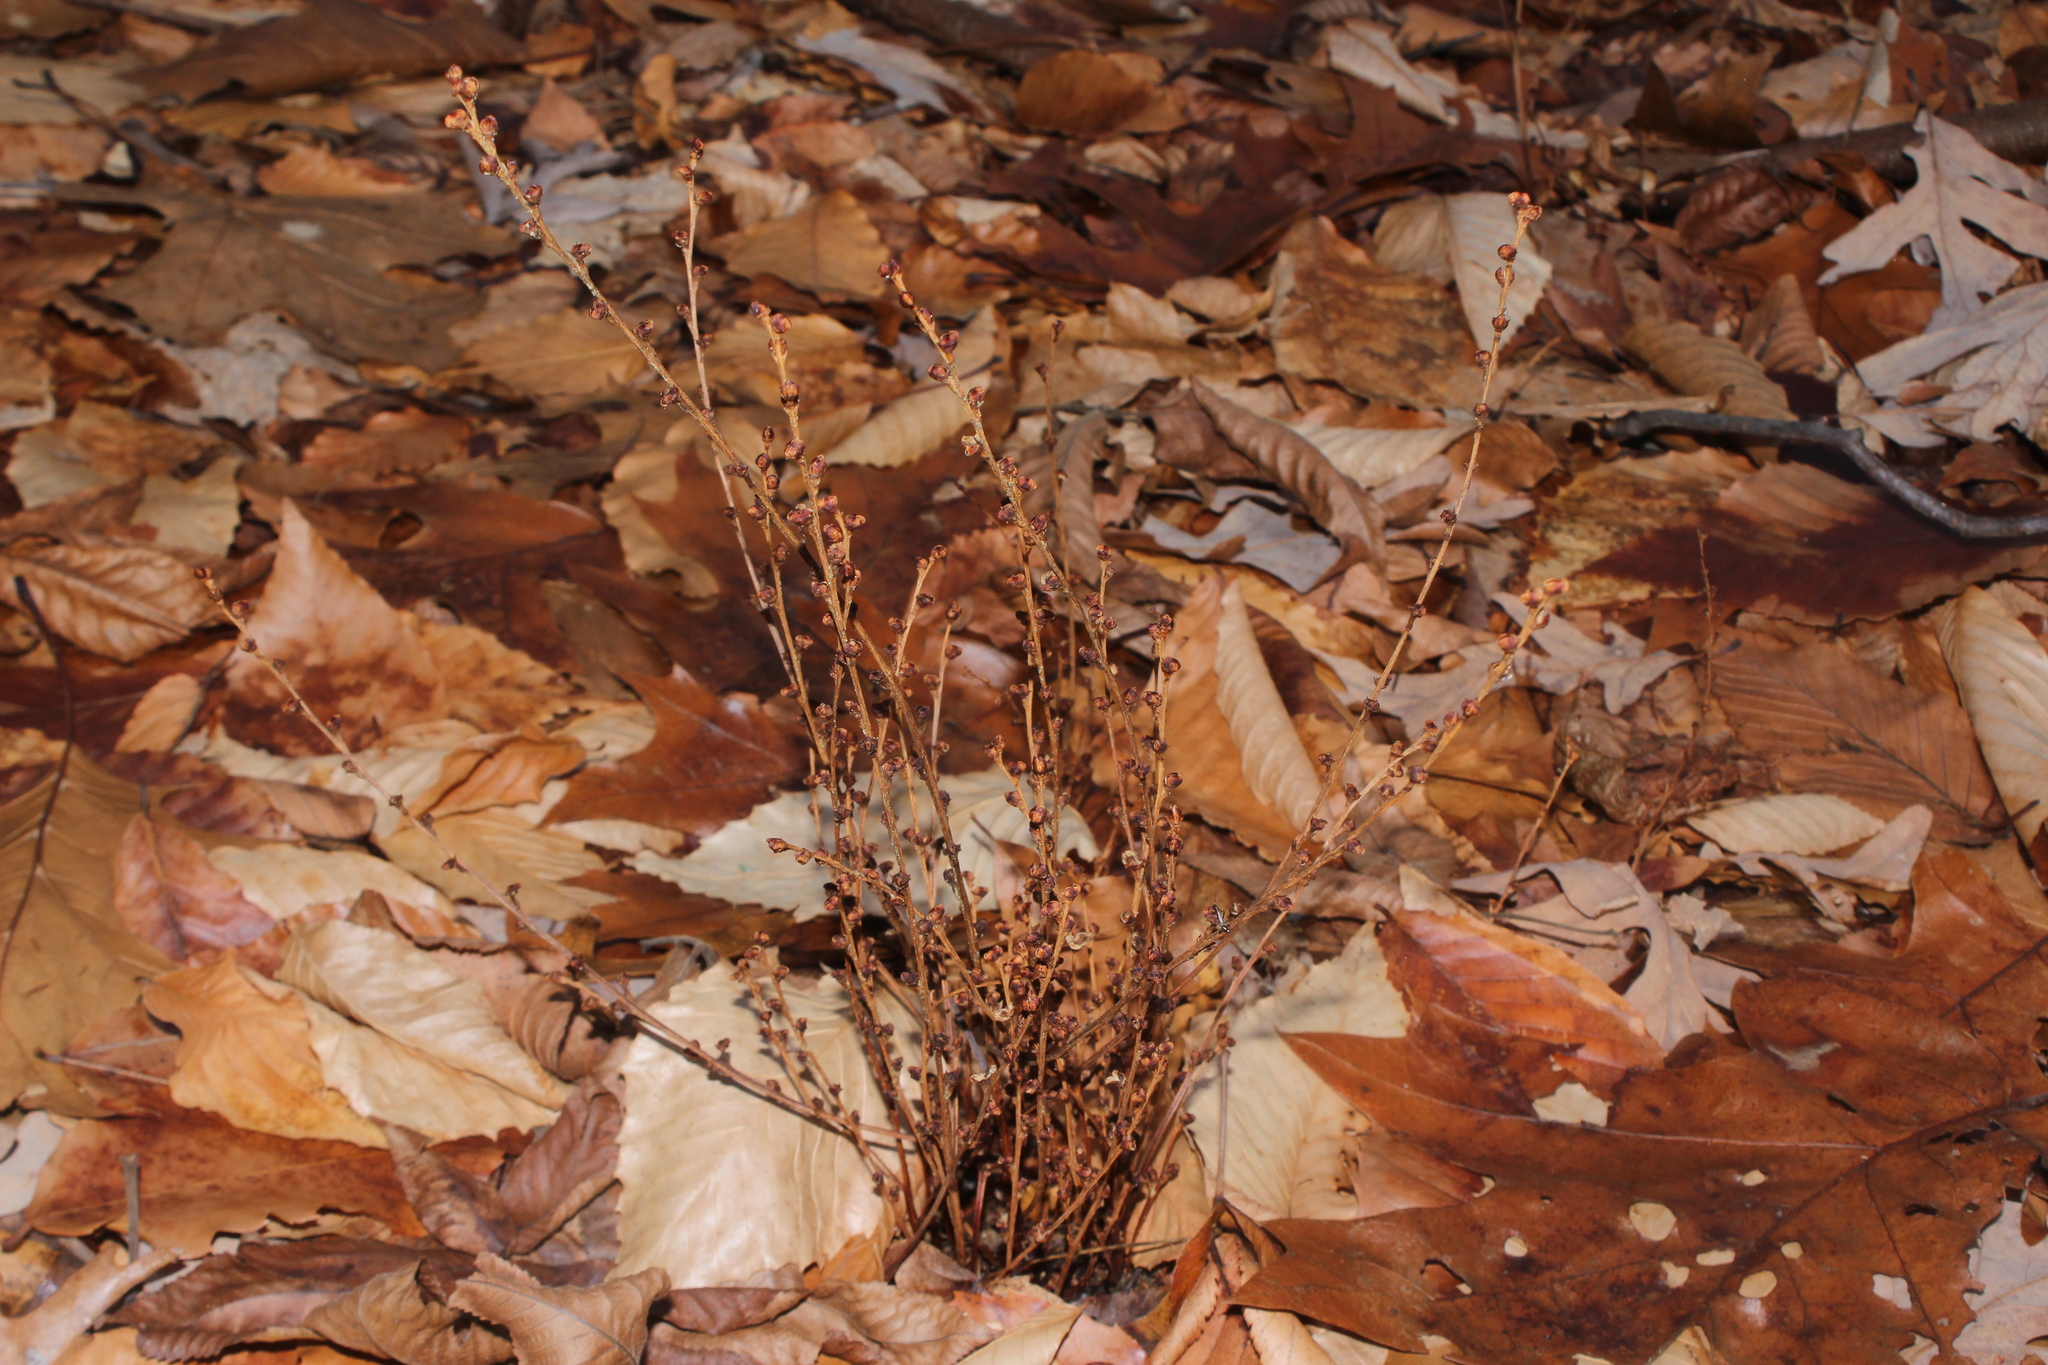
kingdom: Plantae
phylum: Tracheophyta
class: Magnoliopsida
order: Lamiales
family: Orobanchaceae
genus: Epifagus
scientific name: Epifagus virginiana
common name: Beechdrops
